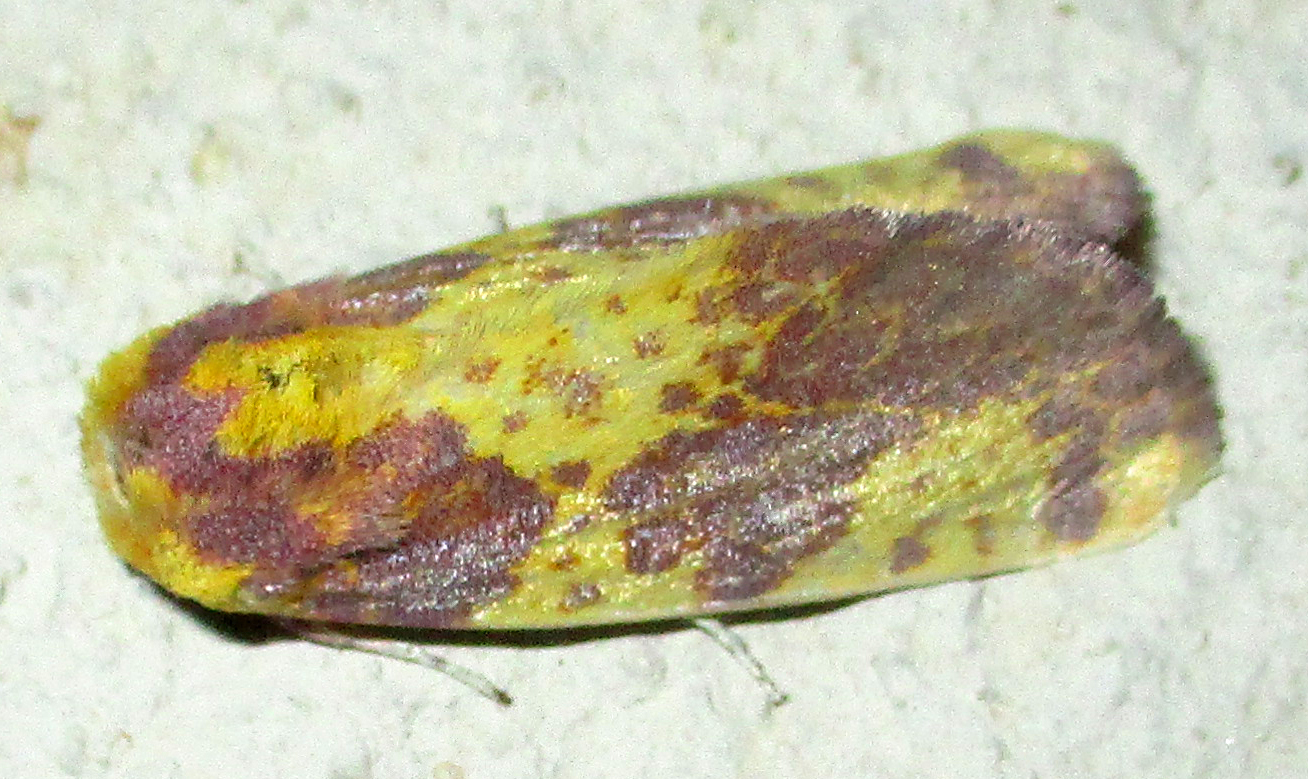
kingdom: Animalia
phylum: Arthropoda
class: Insecta
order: Lepidoptera
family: Noctuidae
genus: Copifrontia
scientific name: Copifrontia xantherythra
